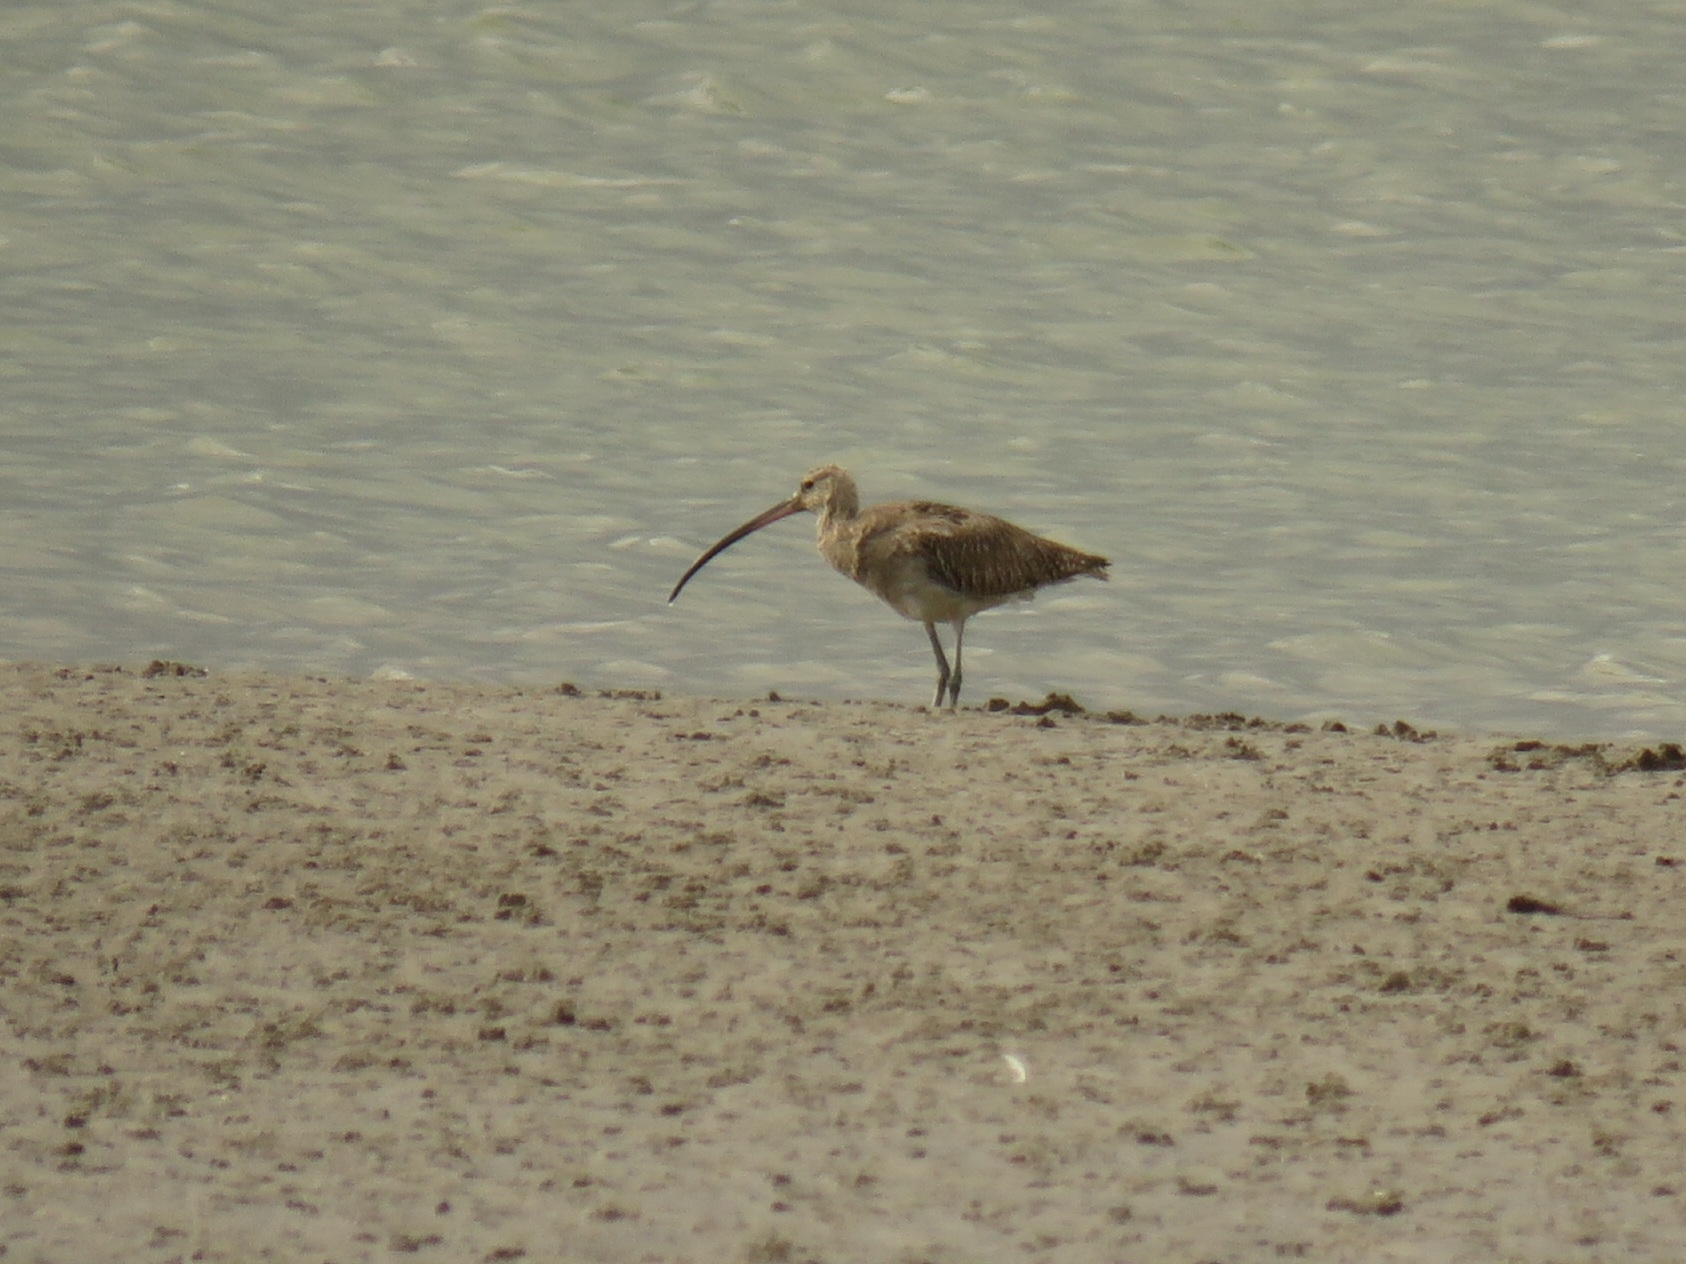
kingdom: Animalia
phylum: Chordata
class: Aves
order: Charadriiformes
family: Scolopacidae
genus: Numenius
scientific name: Numenius arquata
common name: Eurasian curlew
